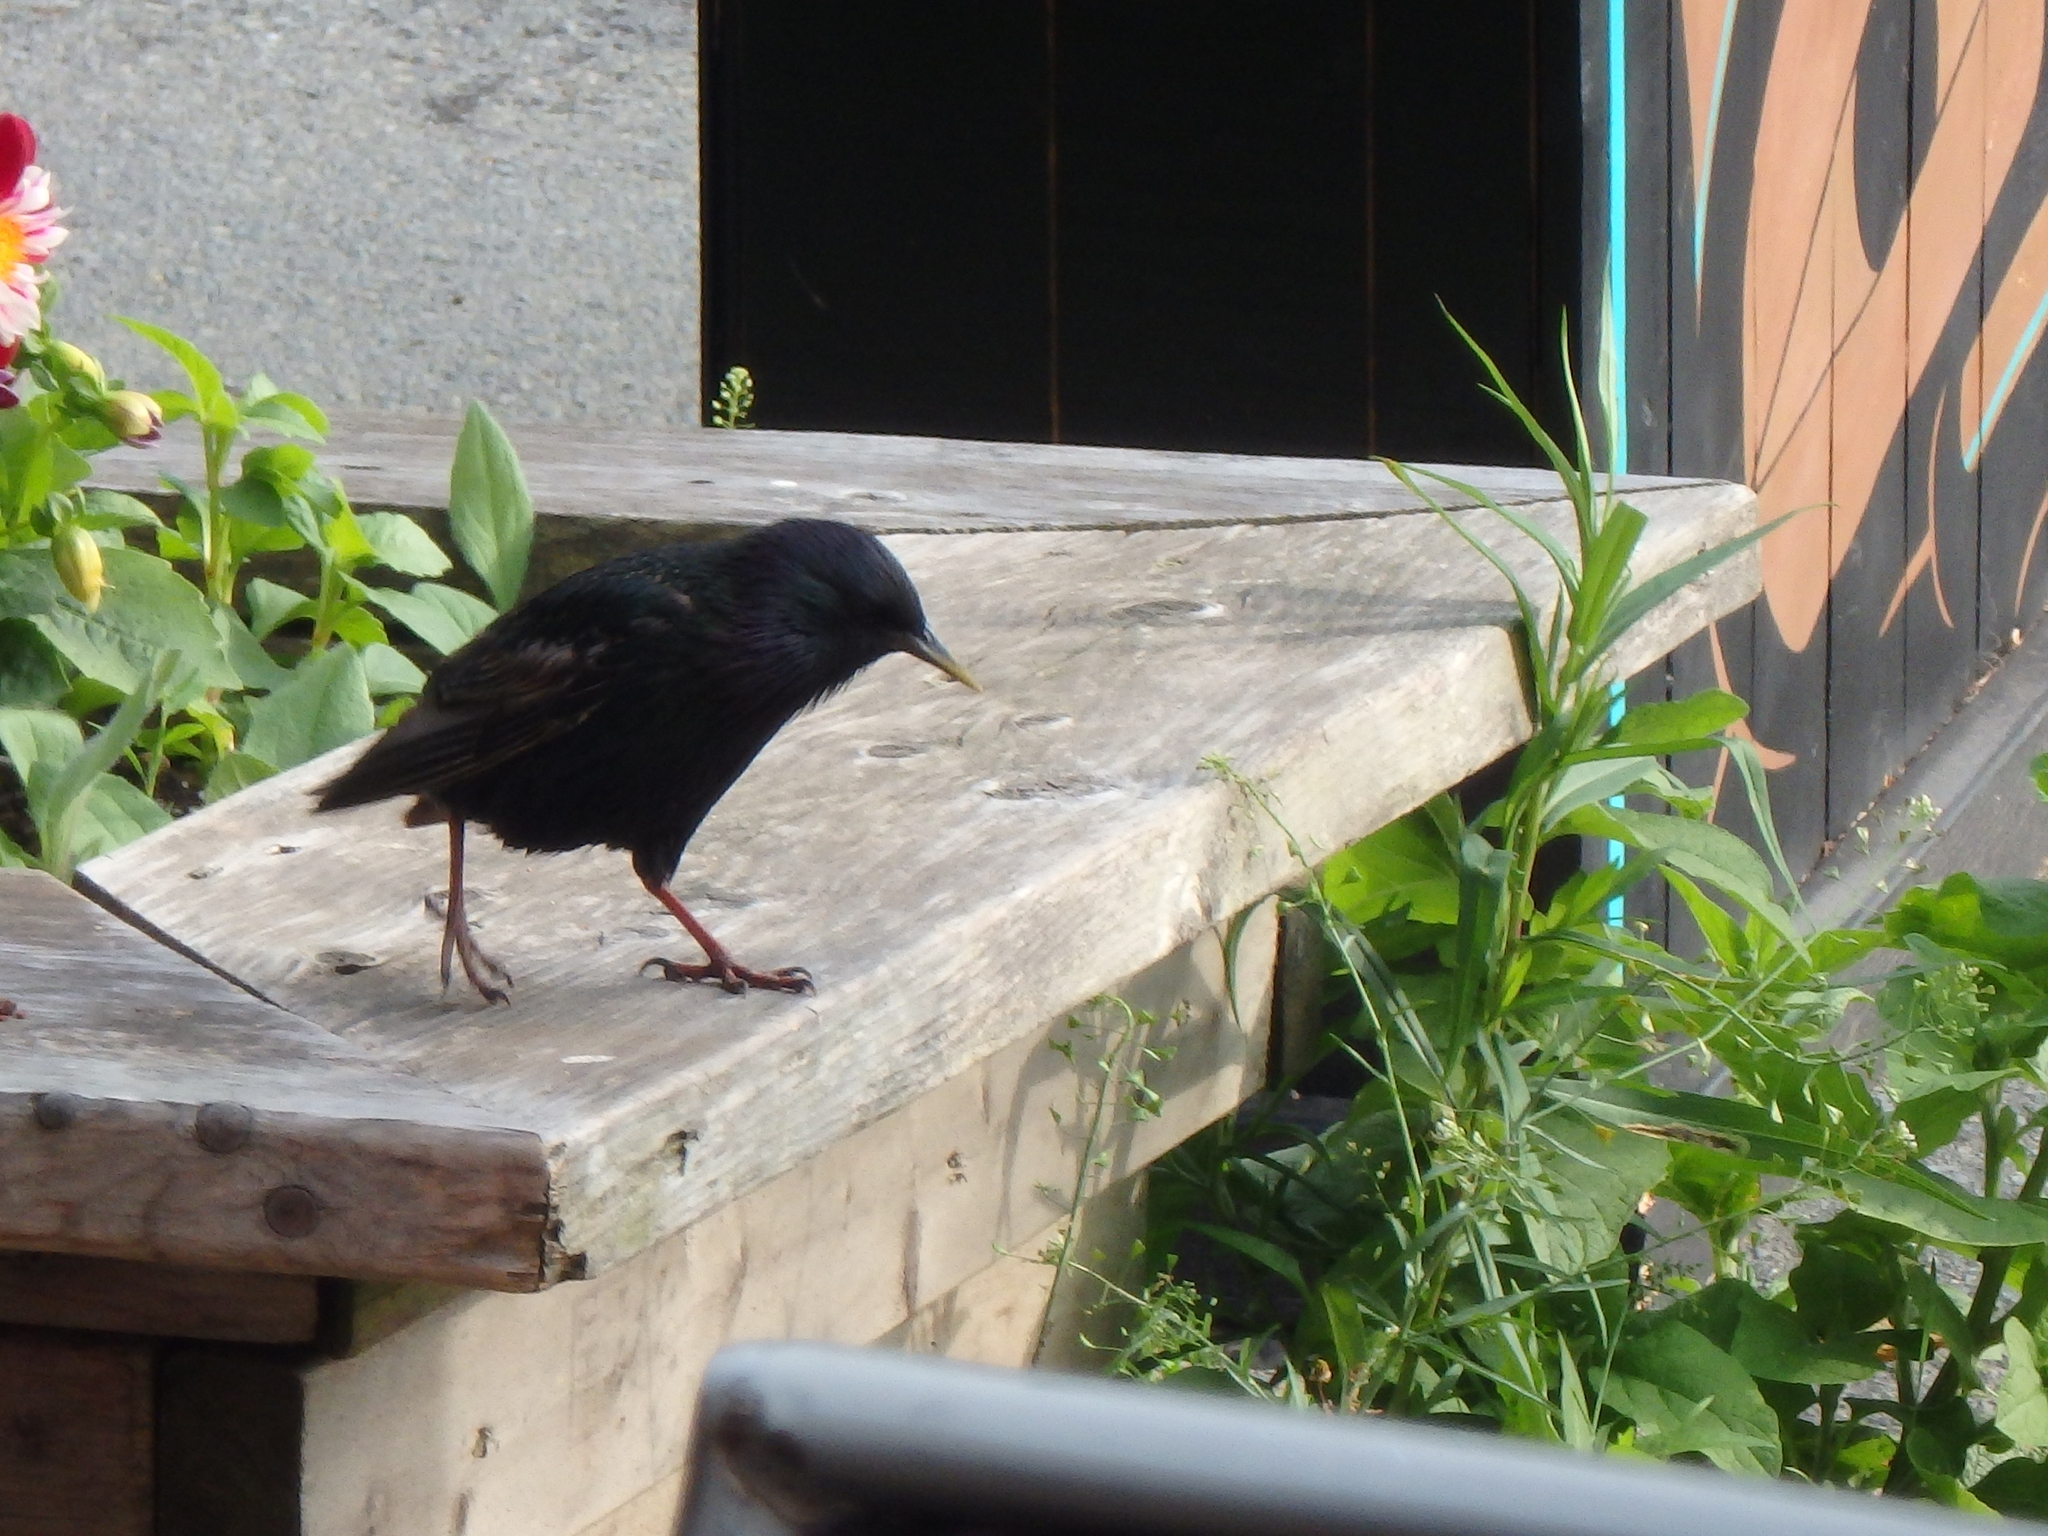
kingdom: Animalia
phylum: Chordata
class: Aves
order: Passeriformes
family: Sturnidae
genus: Sturnus
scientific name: Sturnus vulgaris
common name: Common starling
